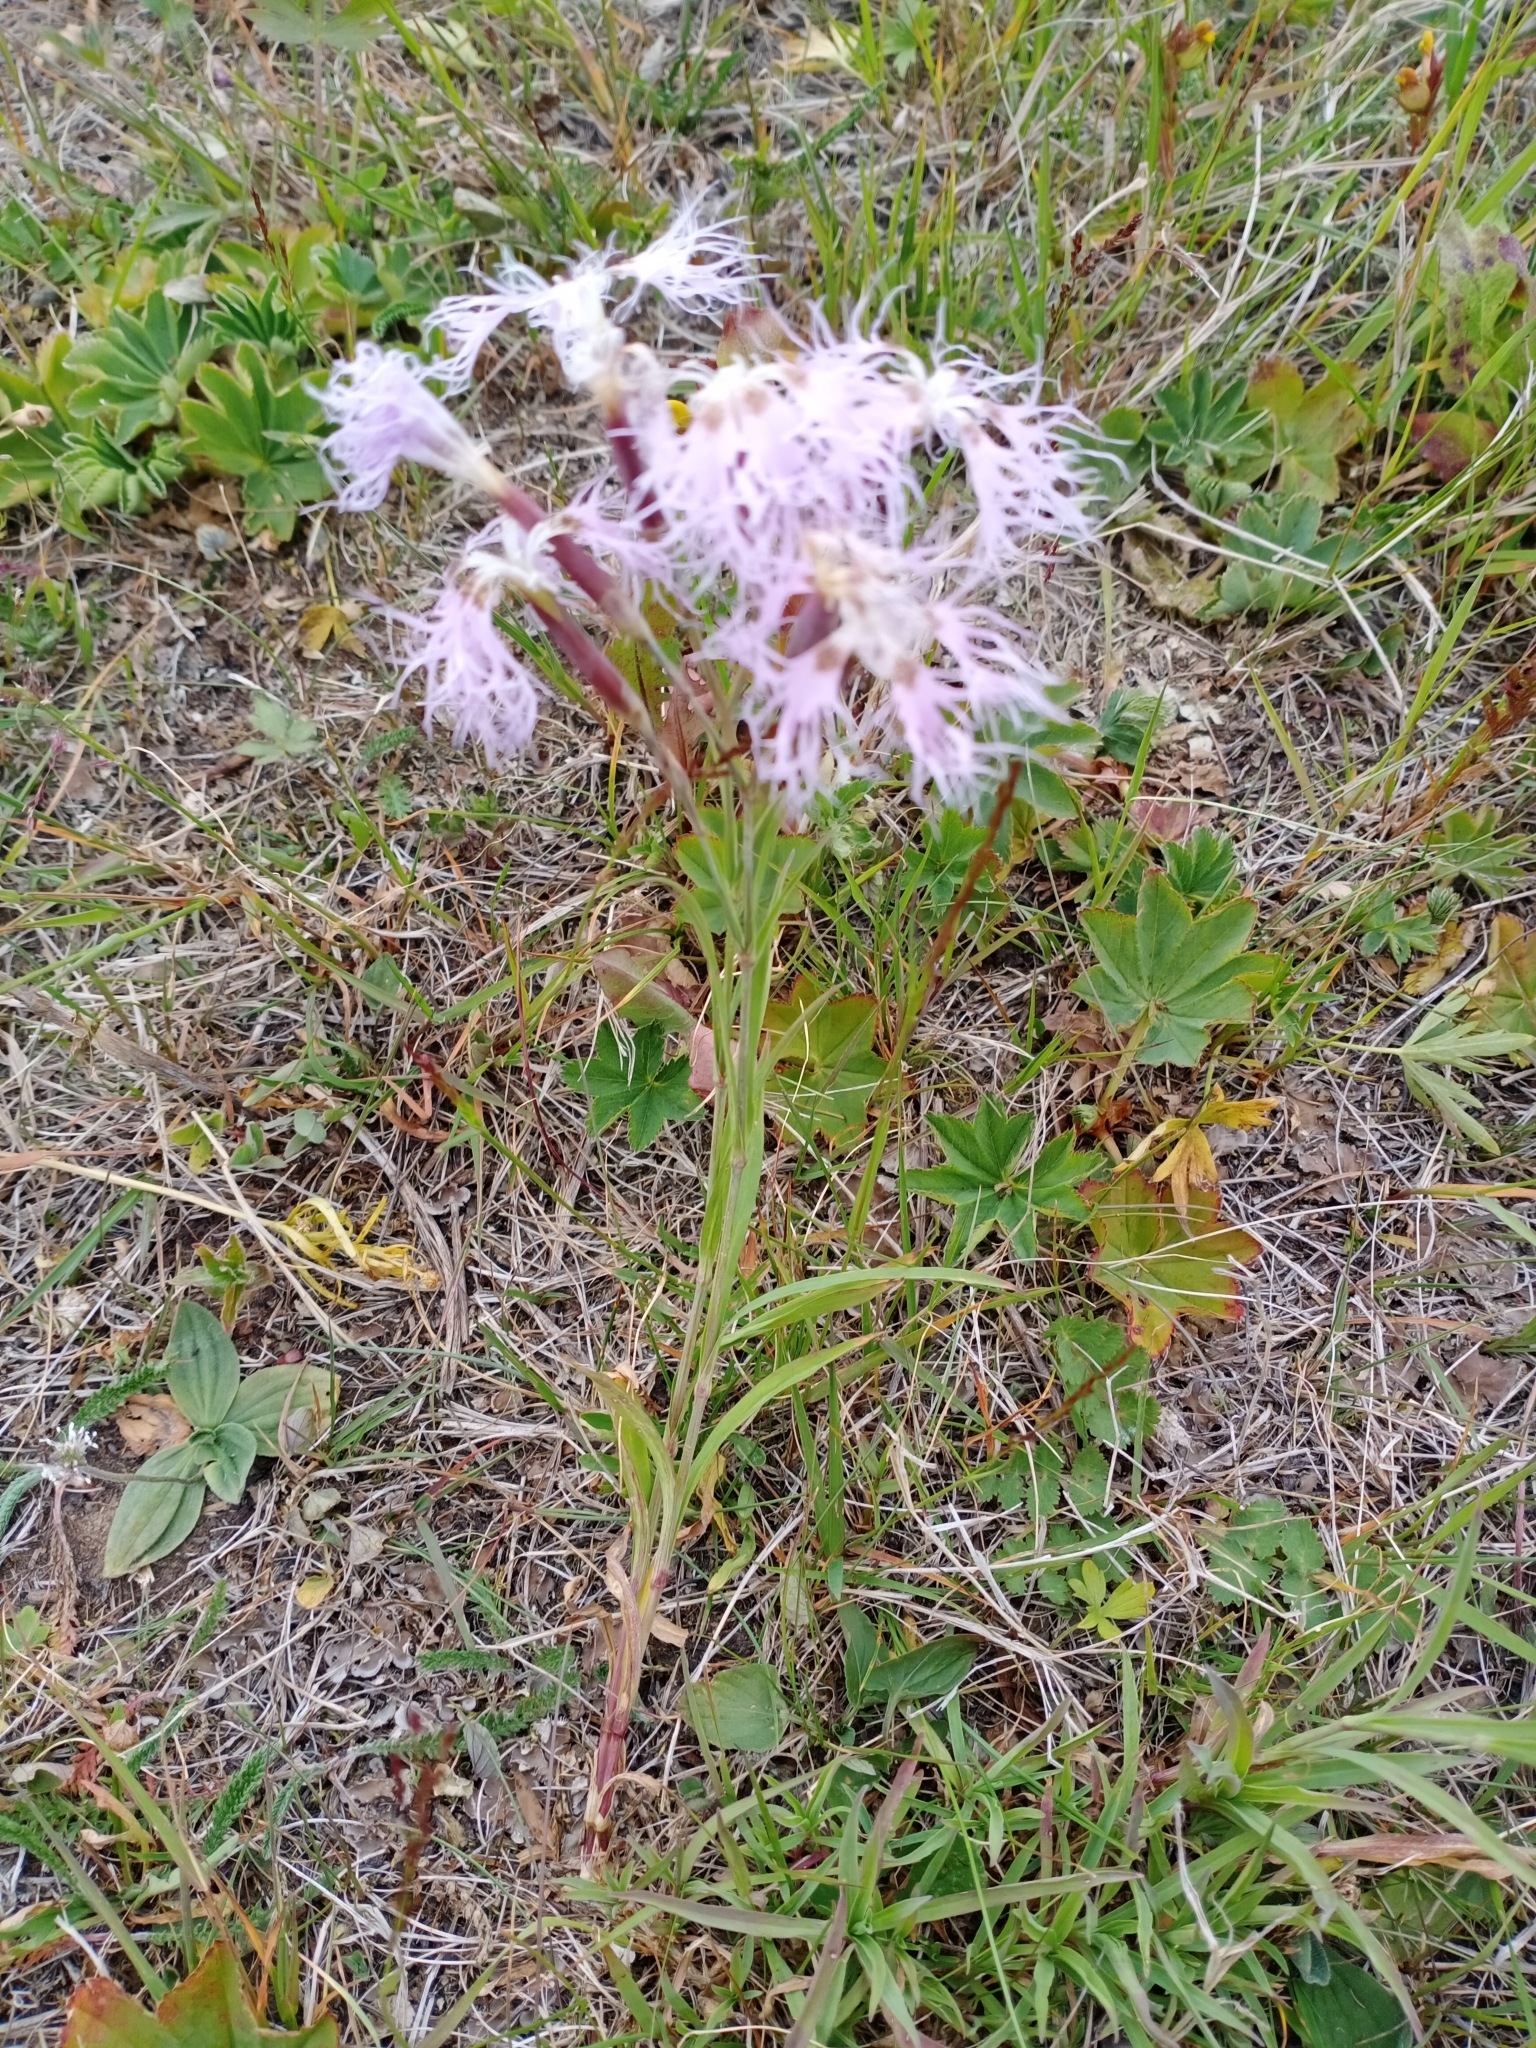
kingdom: Plantae
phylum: Tracheophyta
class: Magnoliopsida
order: Caryophyllales
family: Caryophyllaceae
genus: Dianthus
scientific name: Dianthus superbus
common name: Fringed pink
